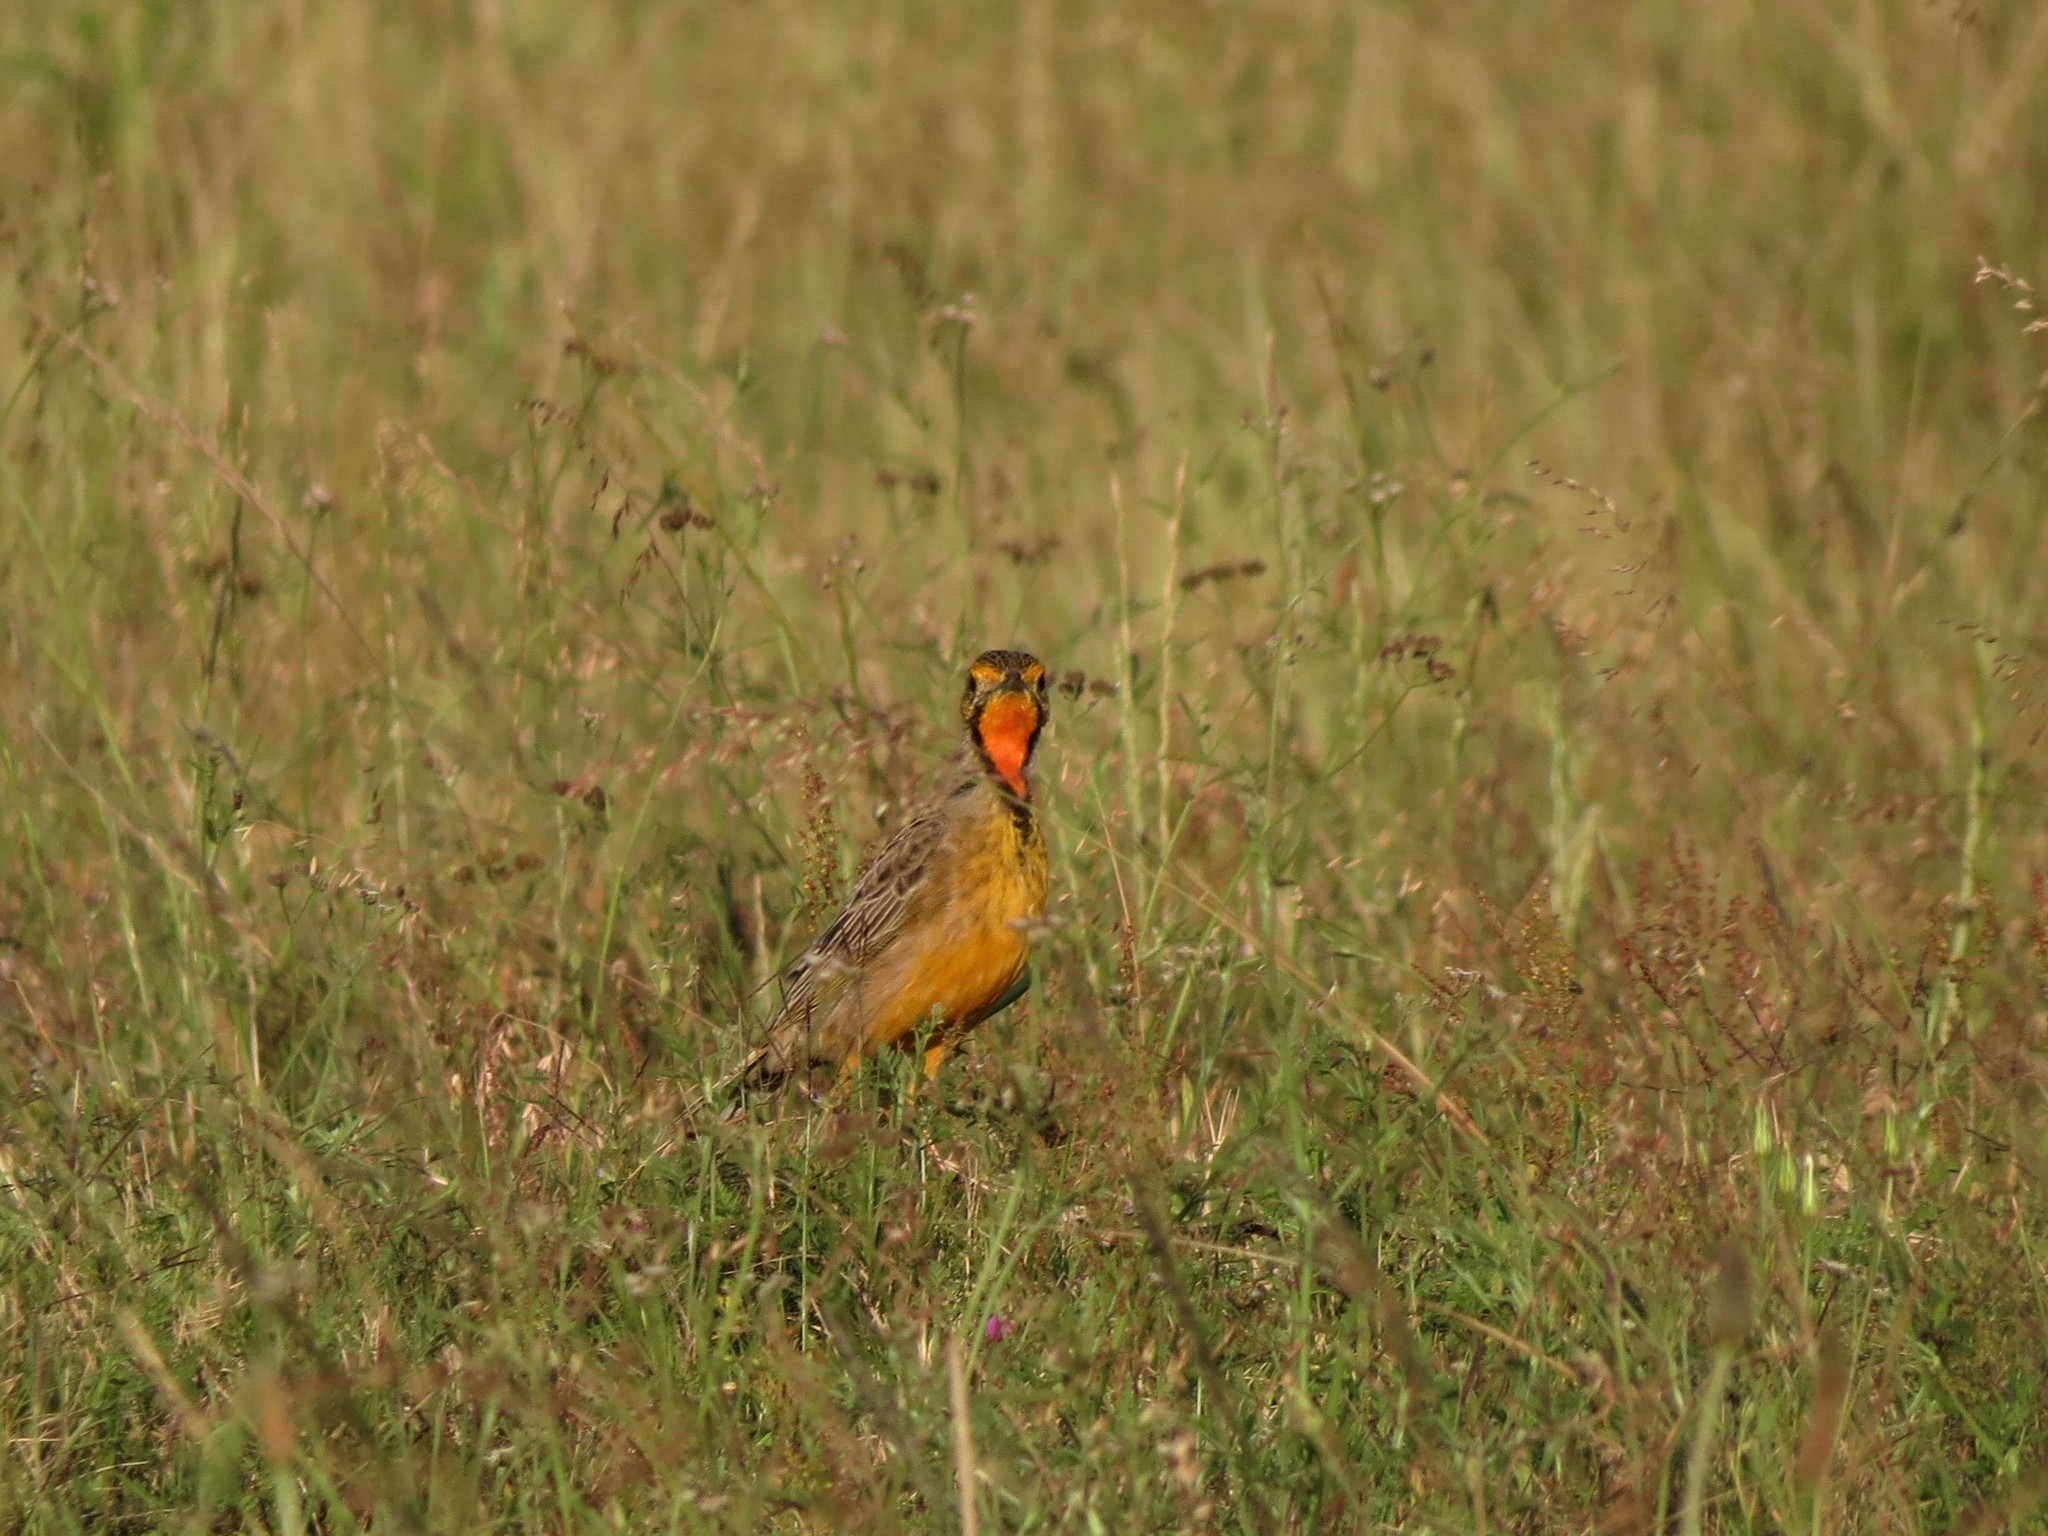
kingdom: Animalia
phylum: Chordata
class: Aves
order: Passeriformes
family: Motacillidae
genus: Macronyx
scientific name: Macronyx capensis
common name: Cape longclaw
